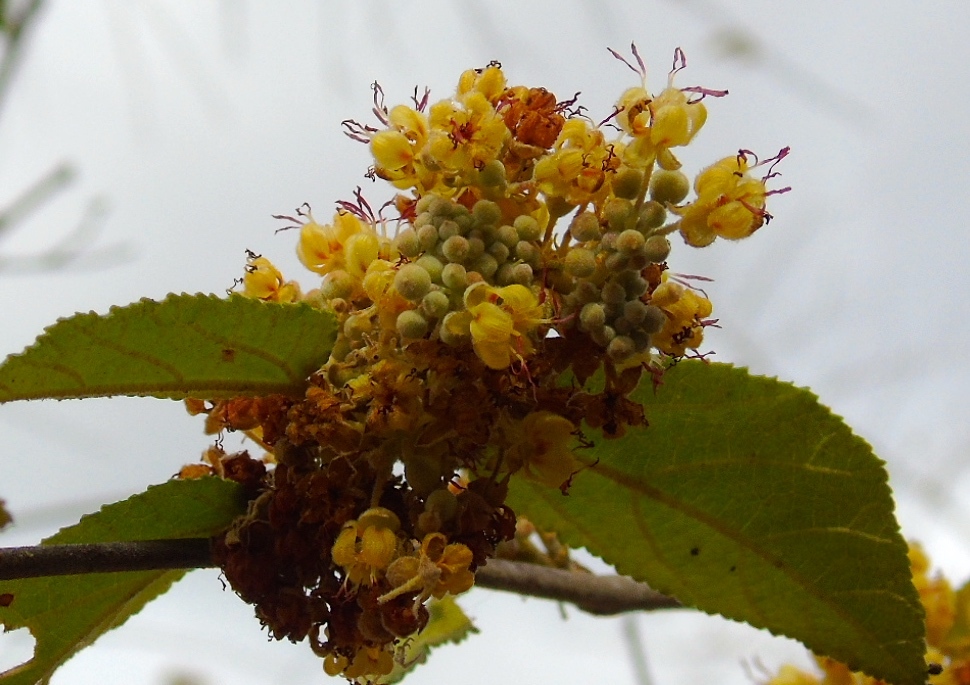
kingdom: Plantae
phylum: Tracheophyta
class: Magnoliopsida
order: Malvales
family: Malvaceae
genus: Guazuma
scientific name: Guazuma ulmifolia
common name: Bastard-cedar
